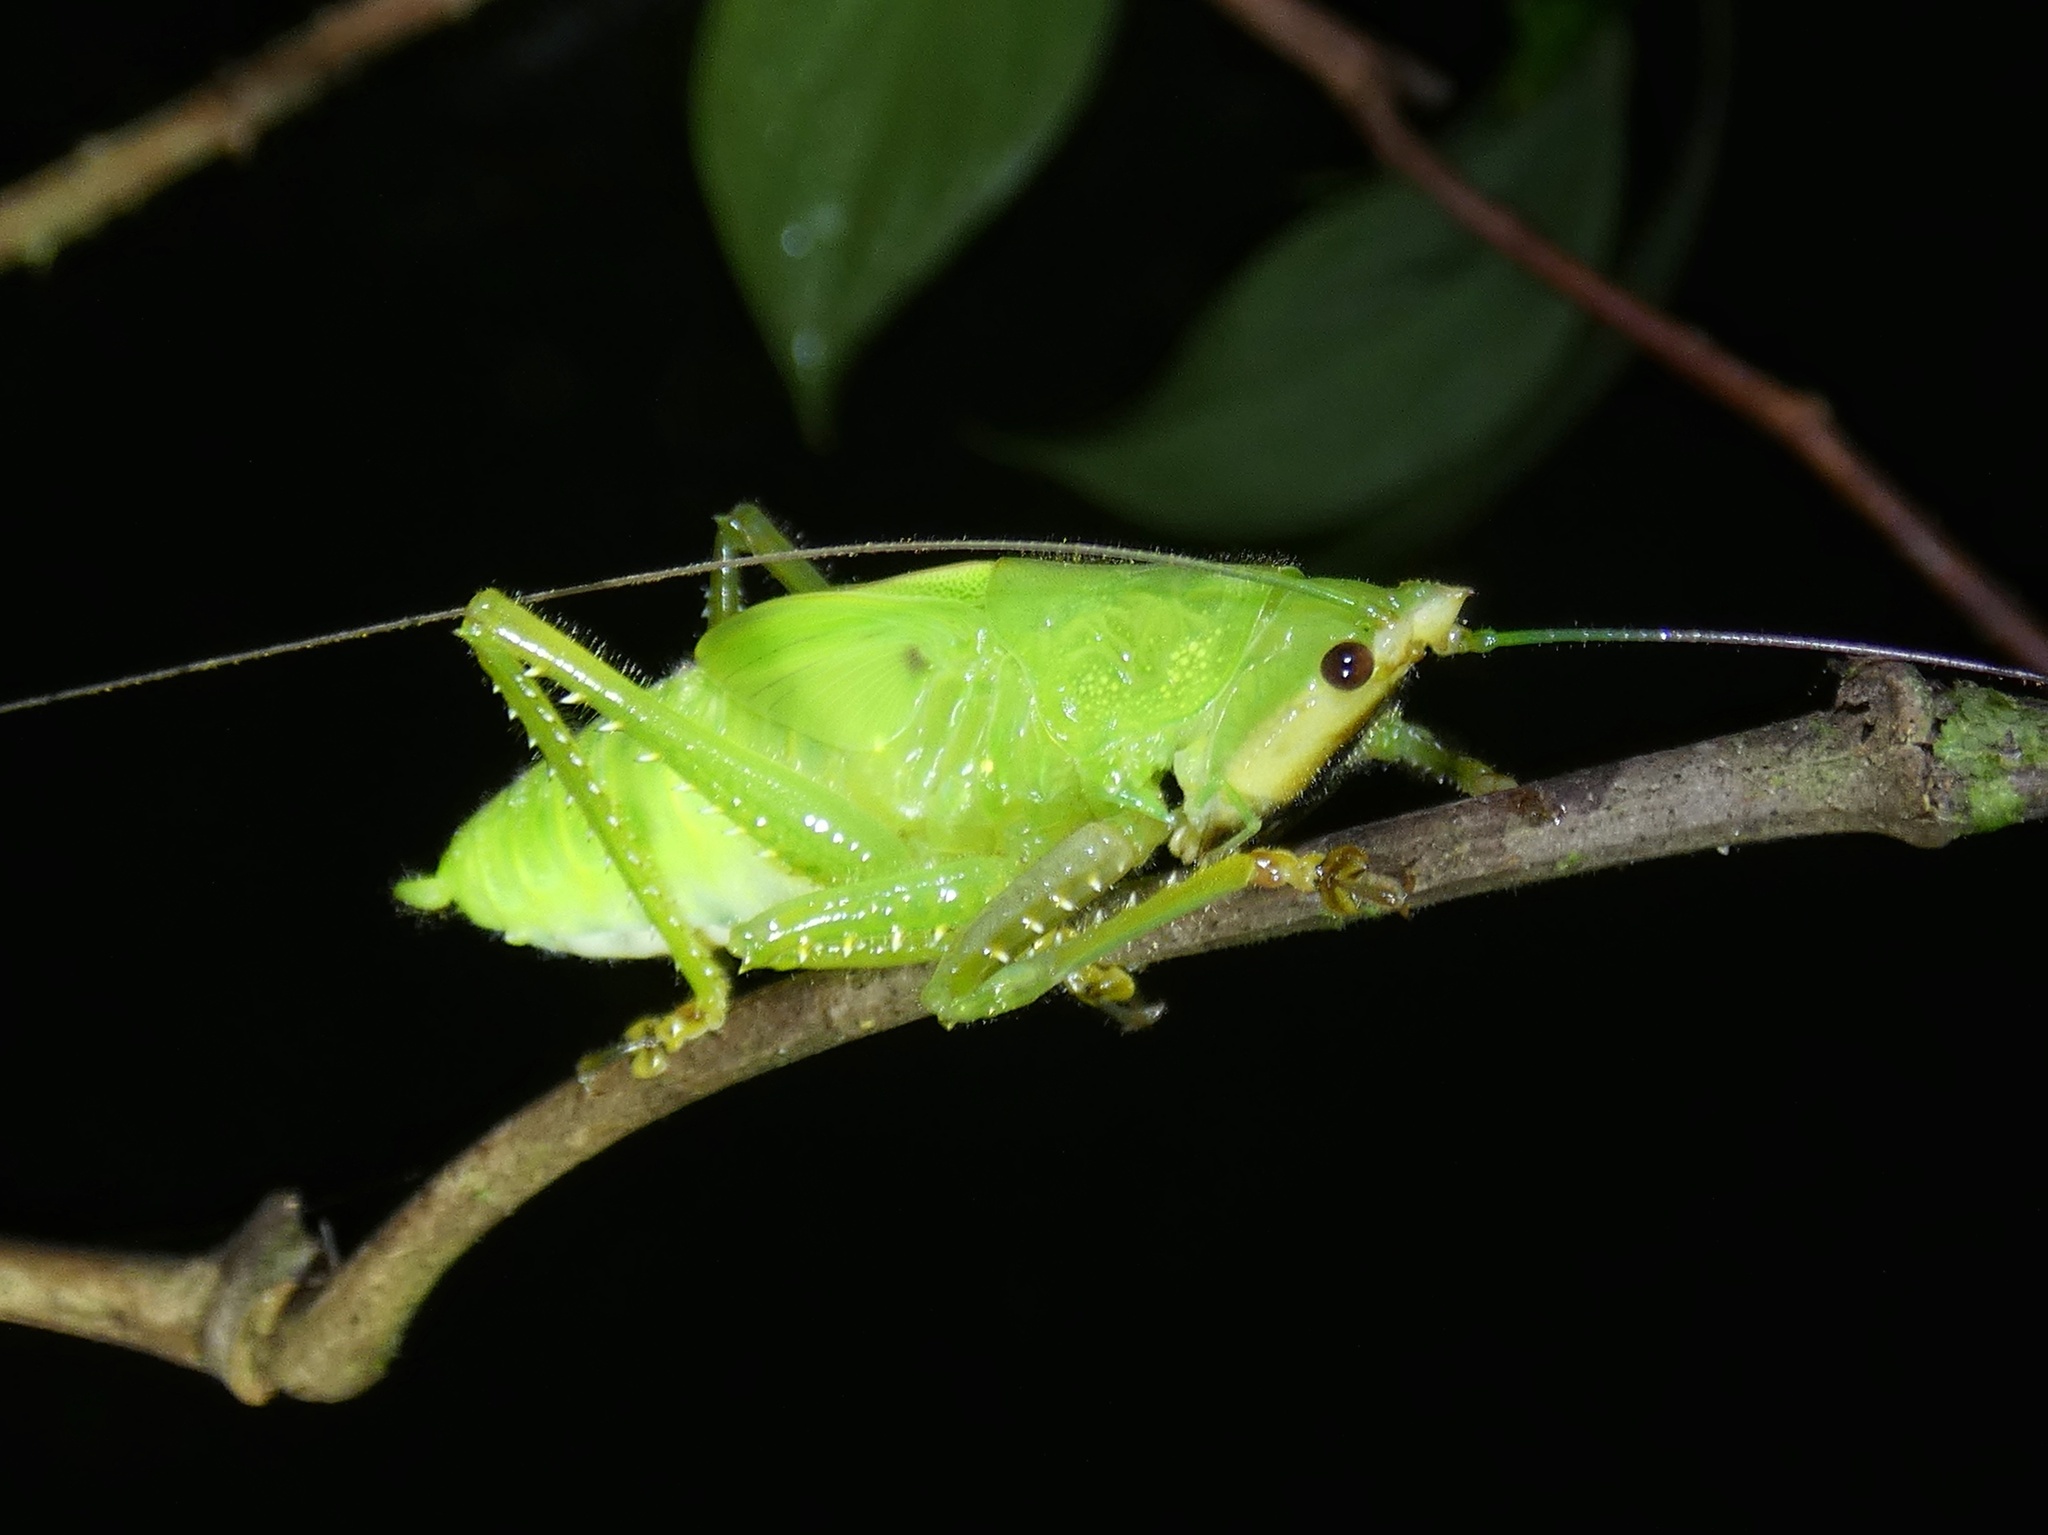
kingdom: Animalia
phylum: Arthropoda
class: Insecta
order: Orthoptera
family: Tettigoniidae
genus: Copiphora
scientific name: Copiphora brevirostris
